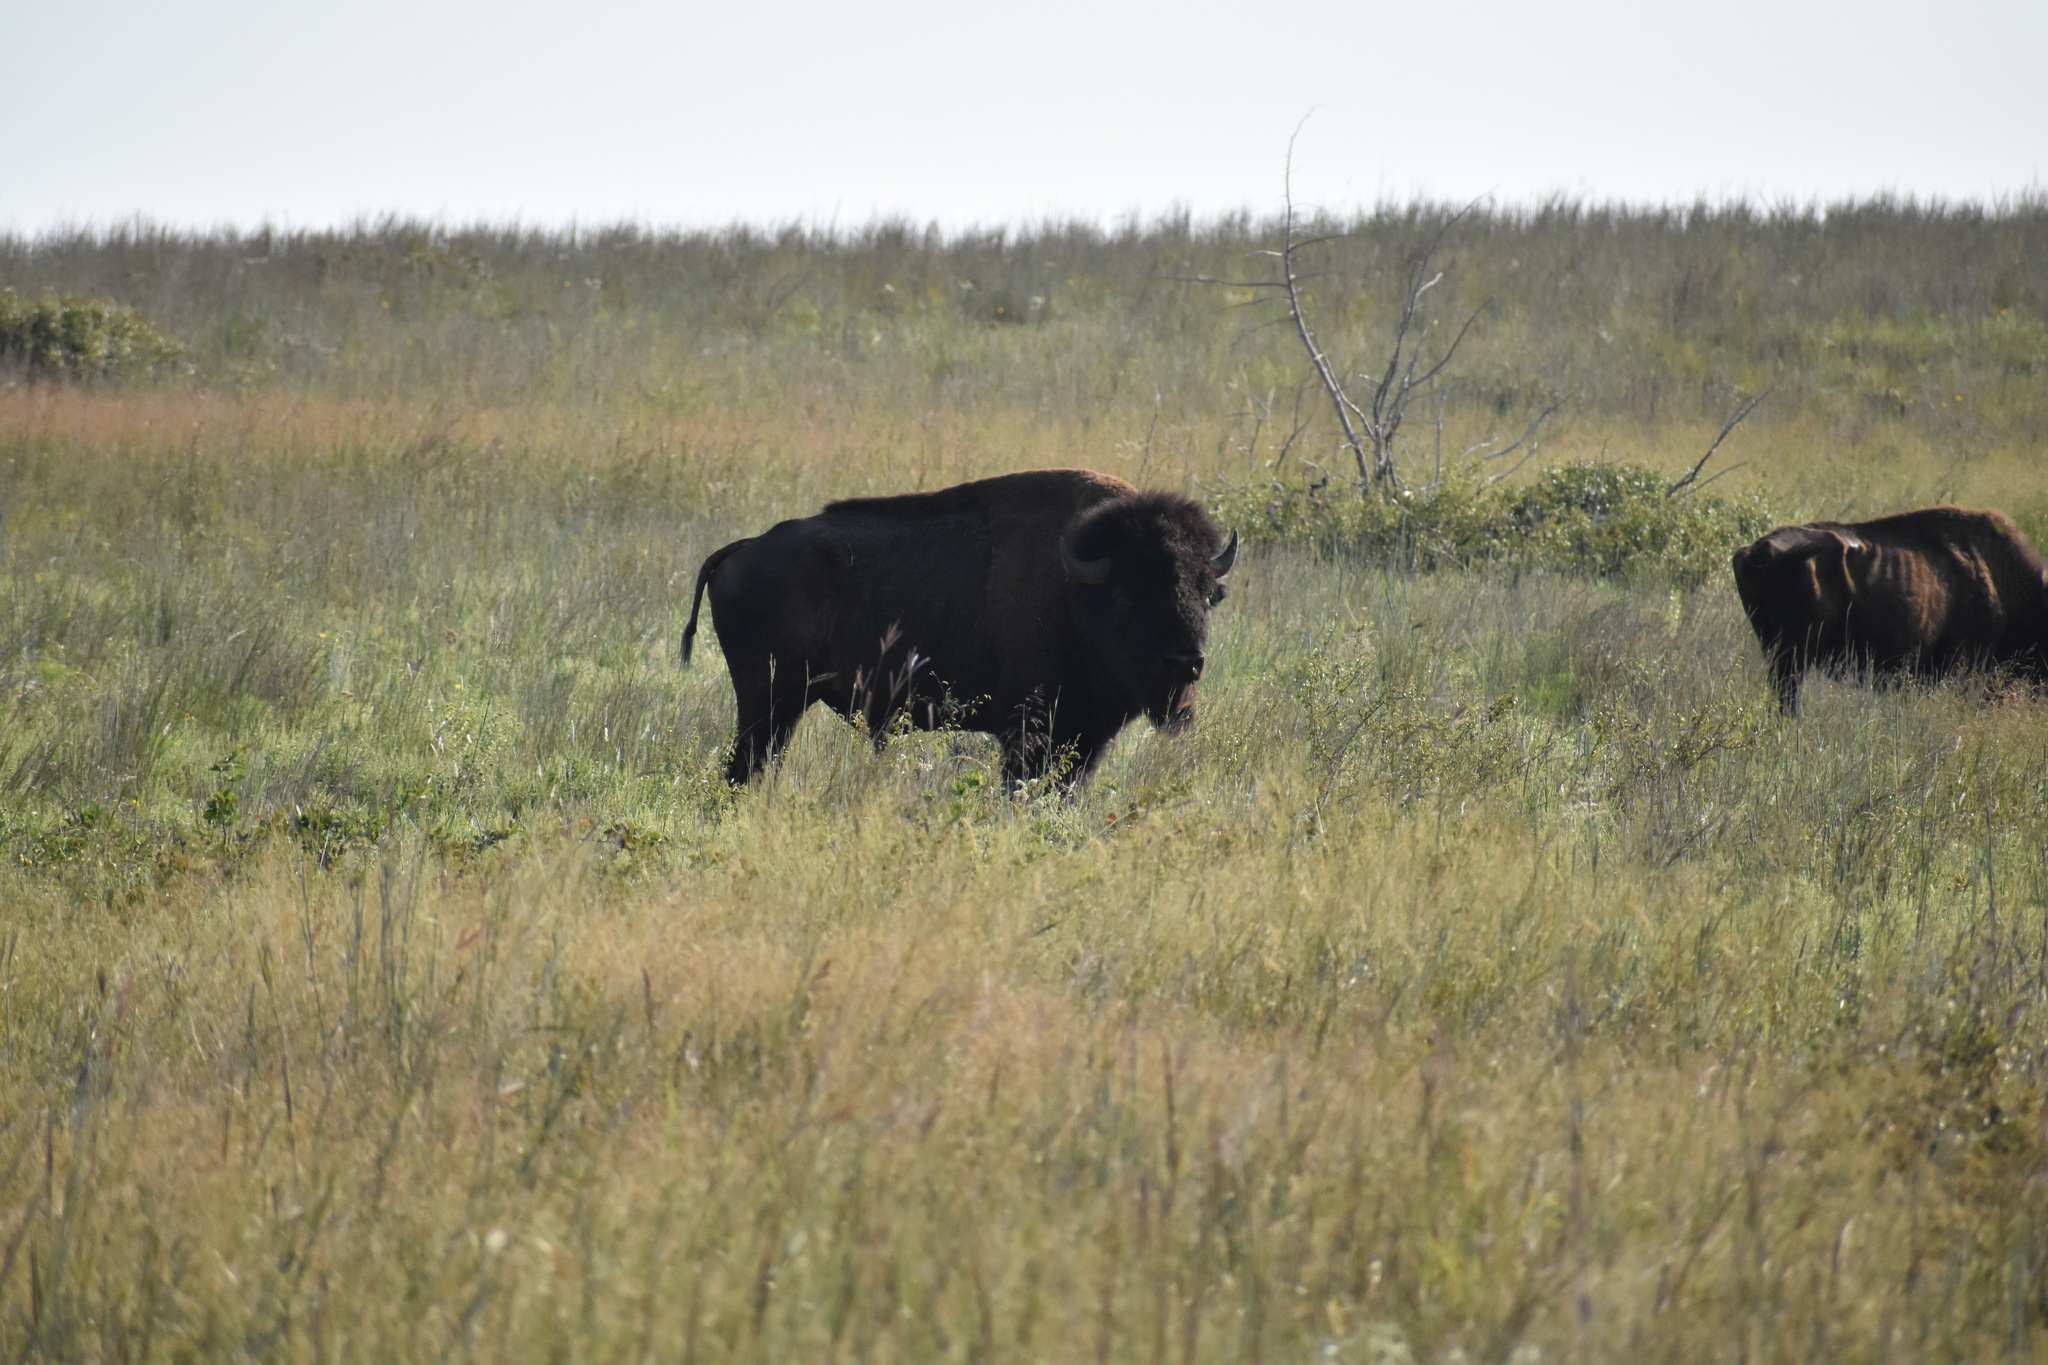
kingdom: Animalia
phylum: Chordata
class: Mammalia
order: Artiodactyla
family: Bovidae
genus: Bison
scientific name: Bison bison
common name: American bison
